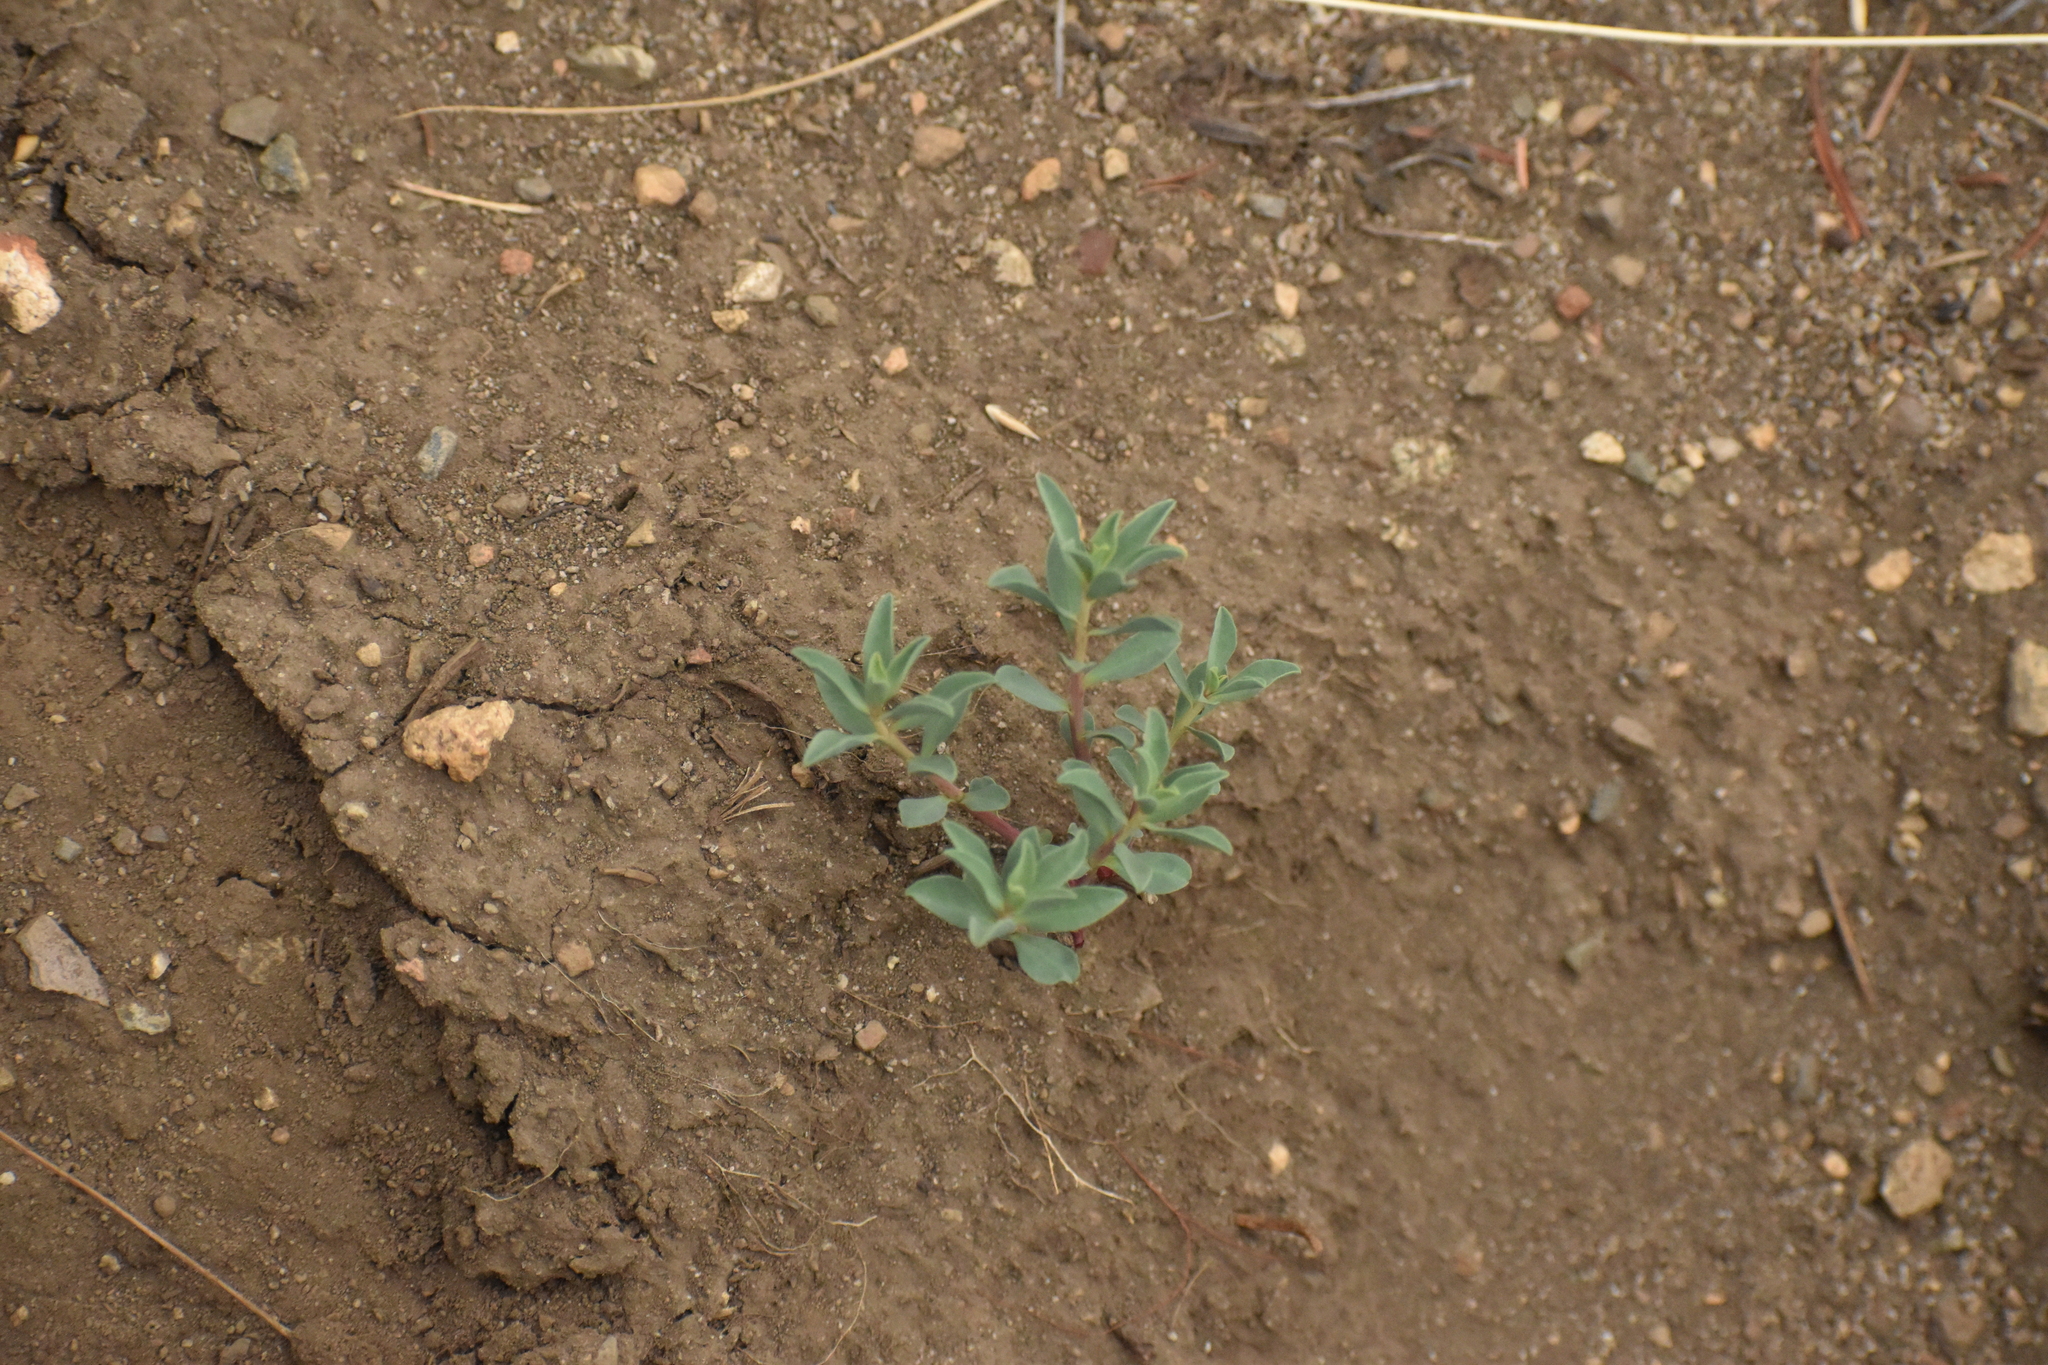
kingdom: Plantae
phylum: Tracheophyta
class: Magnoliopsida
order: Malpighiales
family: Euphorbiaceae
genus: Euphorbia
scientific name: Euphorbia portulacoides
